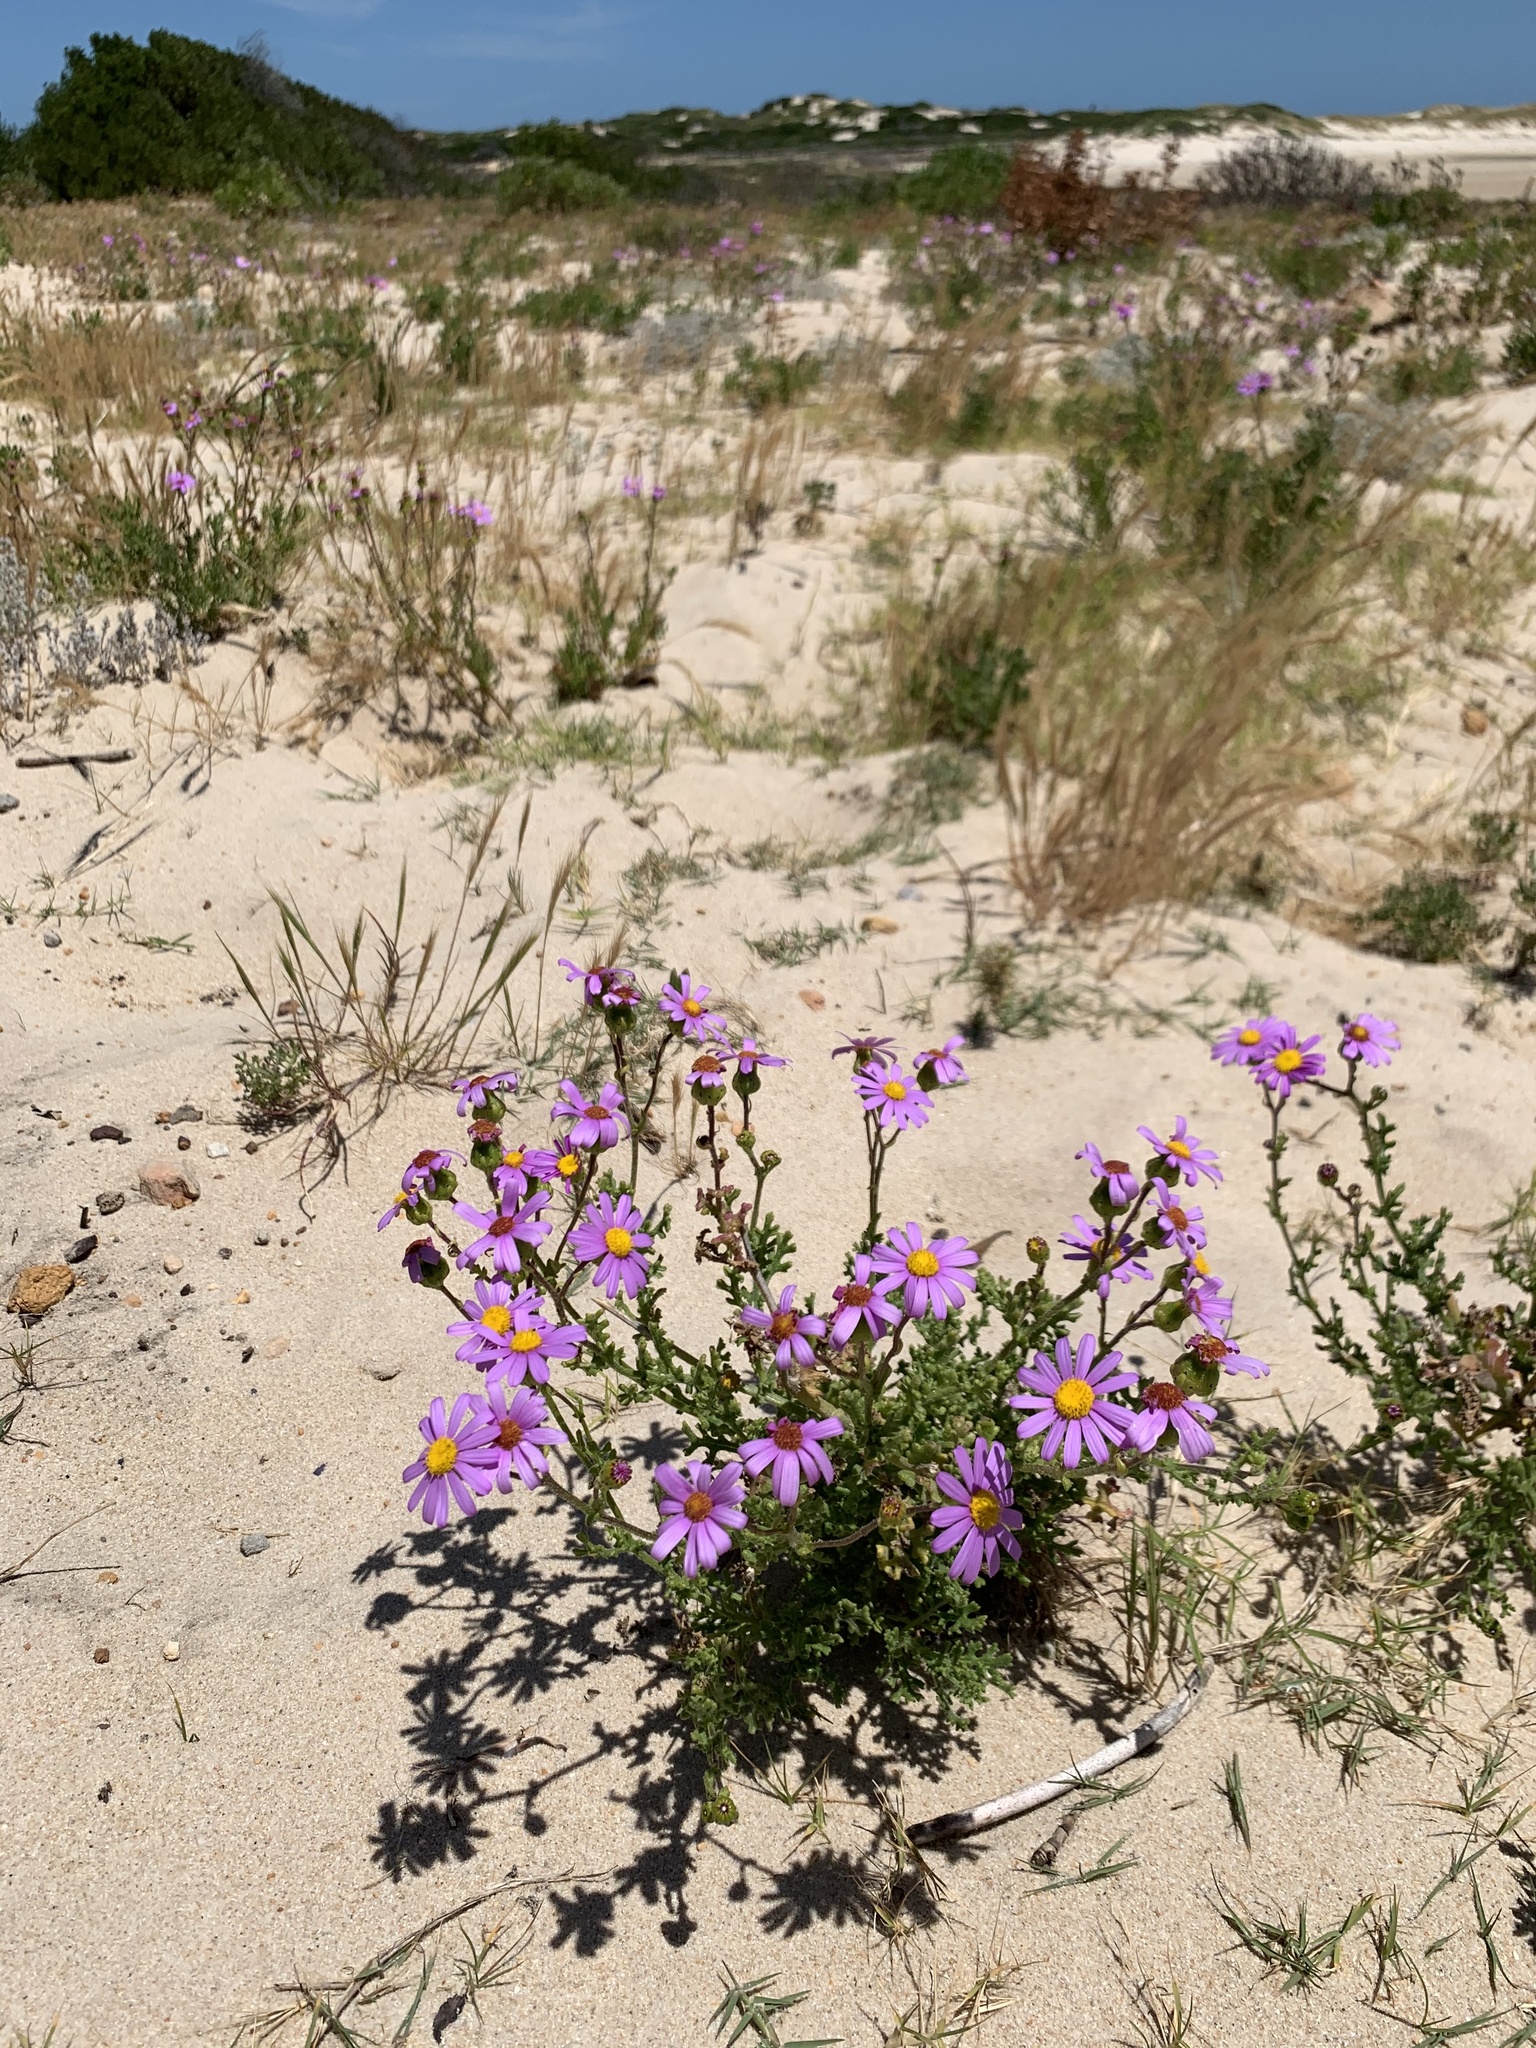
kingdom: Plantae
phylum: Tracheophyta
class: Magnoliopsida
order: Asterales
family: Asteraceae
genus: Senecio
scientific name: Senecio elegans
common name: Purple groundsel
